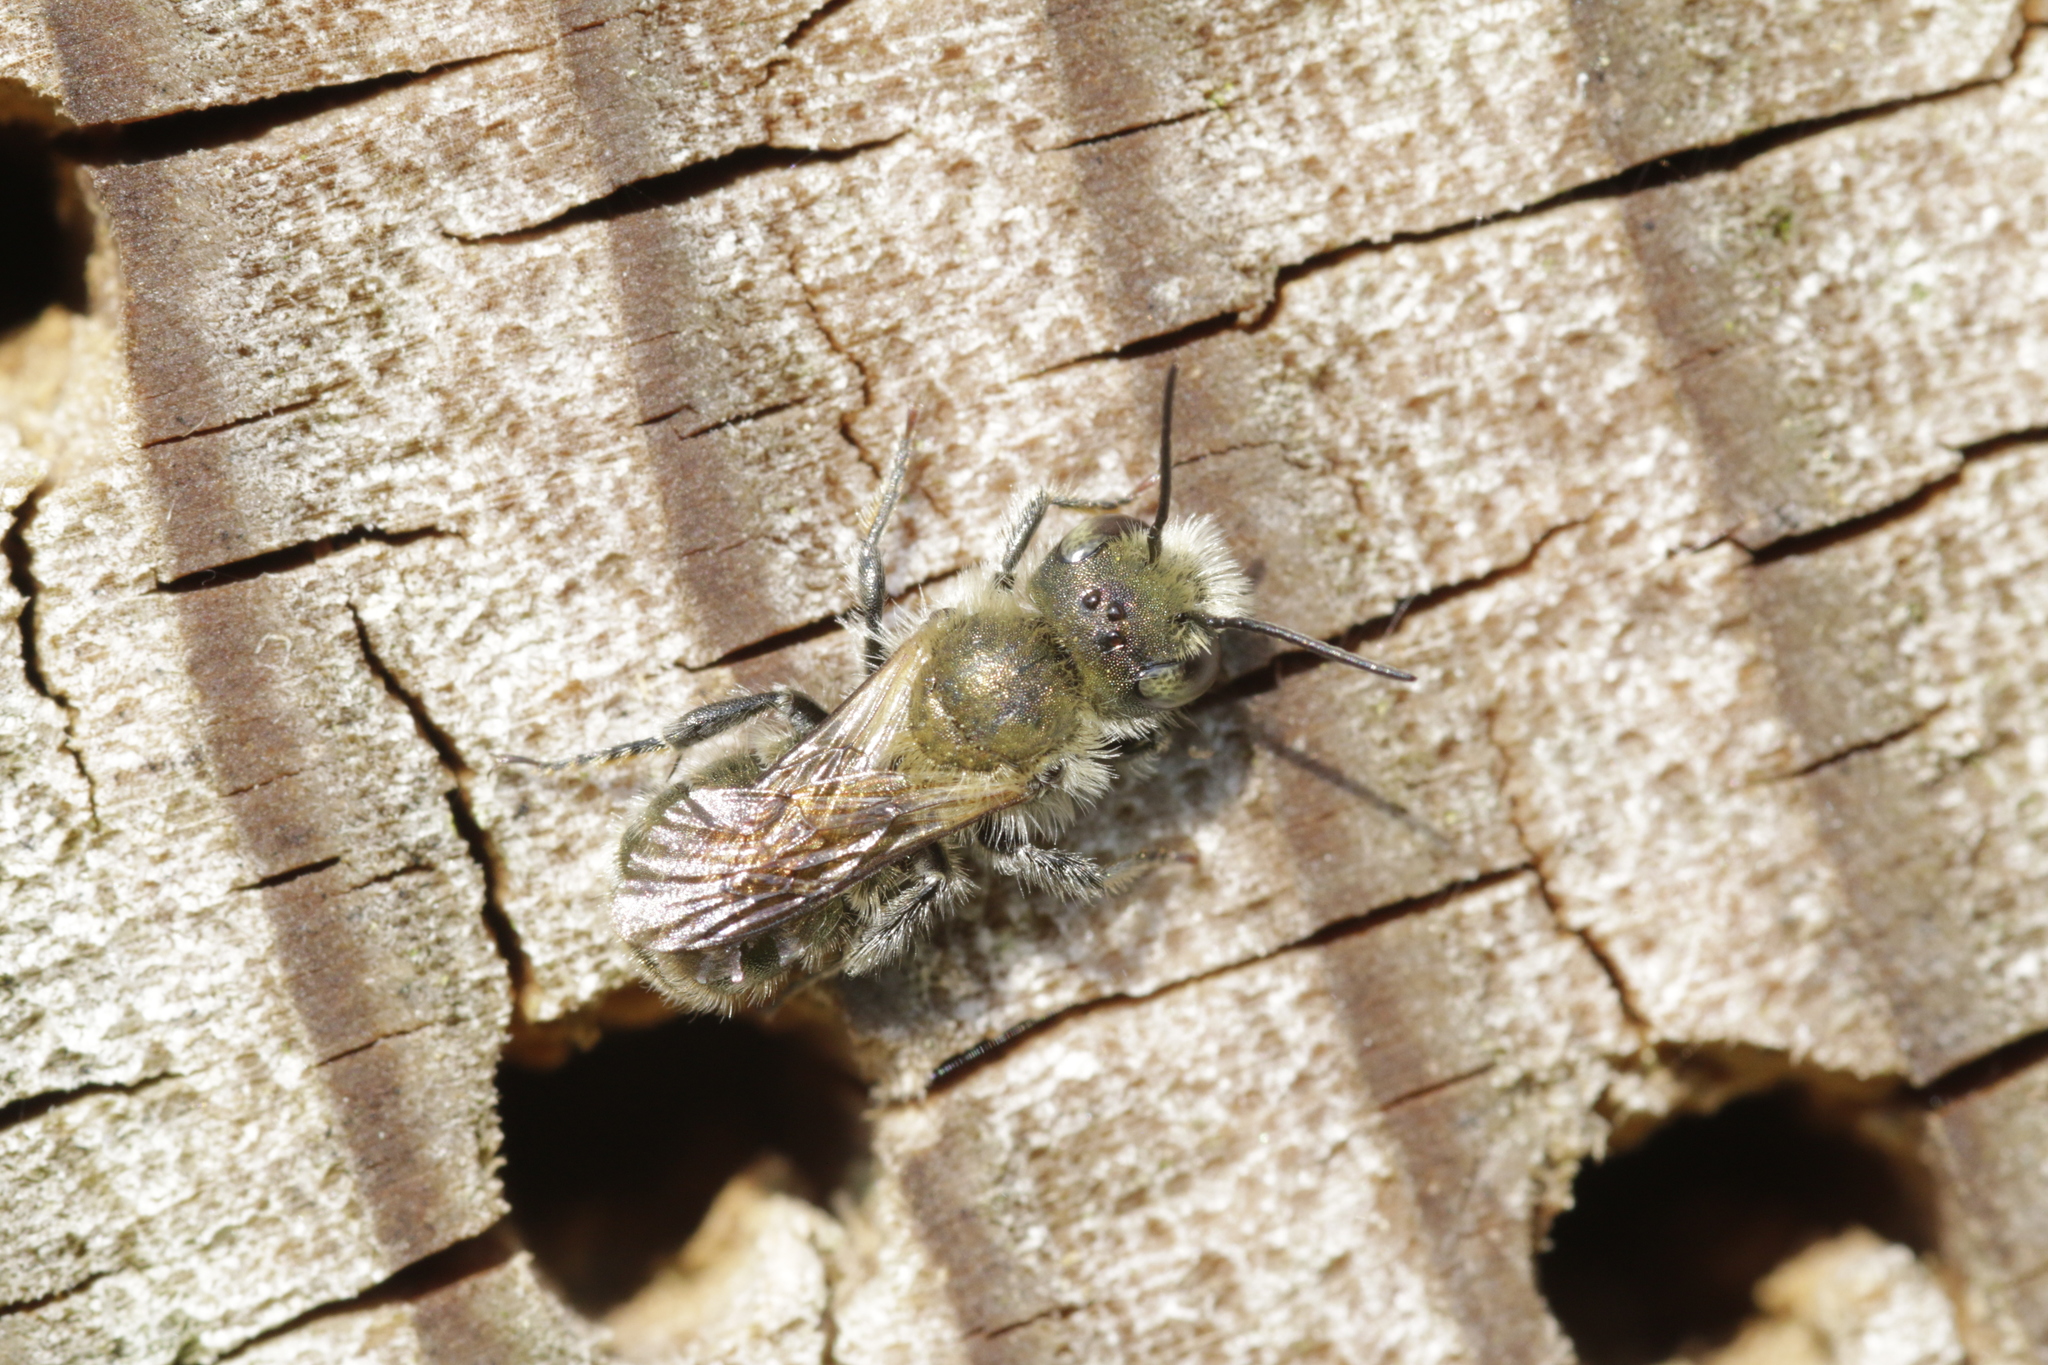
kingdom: Animalia
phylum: Arthropoda
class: Insecta
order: Hymenoptera
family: Megachilidae
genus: Osmia
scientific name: Osmia caerulescens
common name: Blue mason bee
